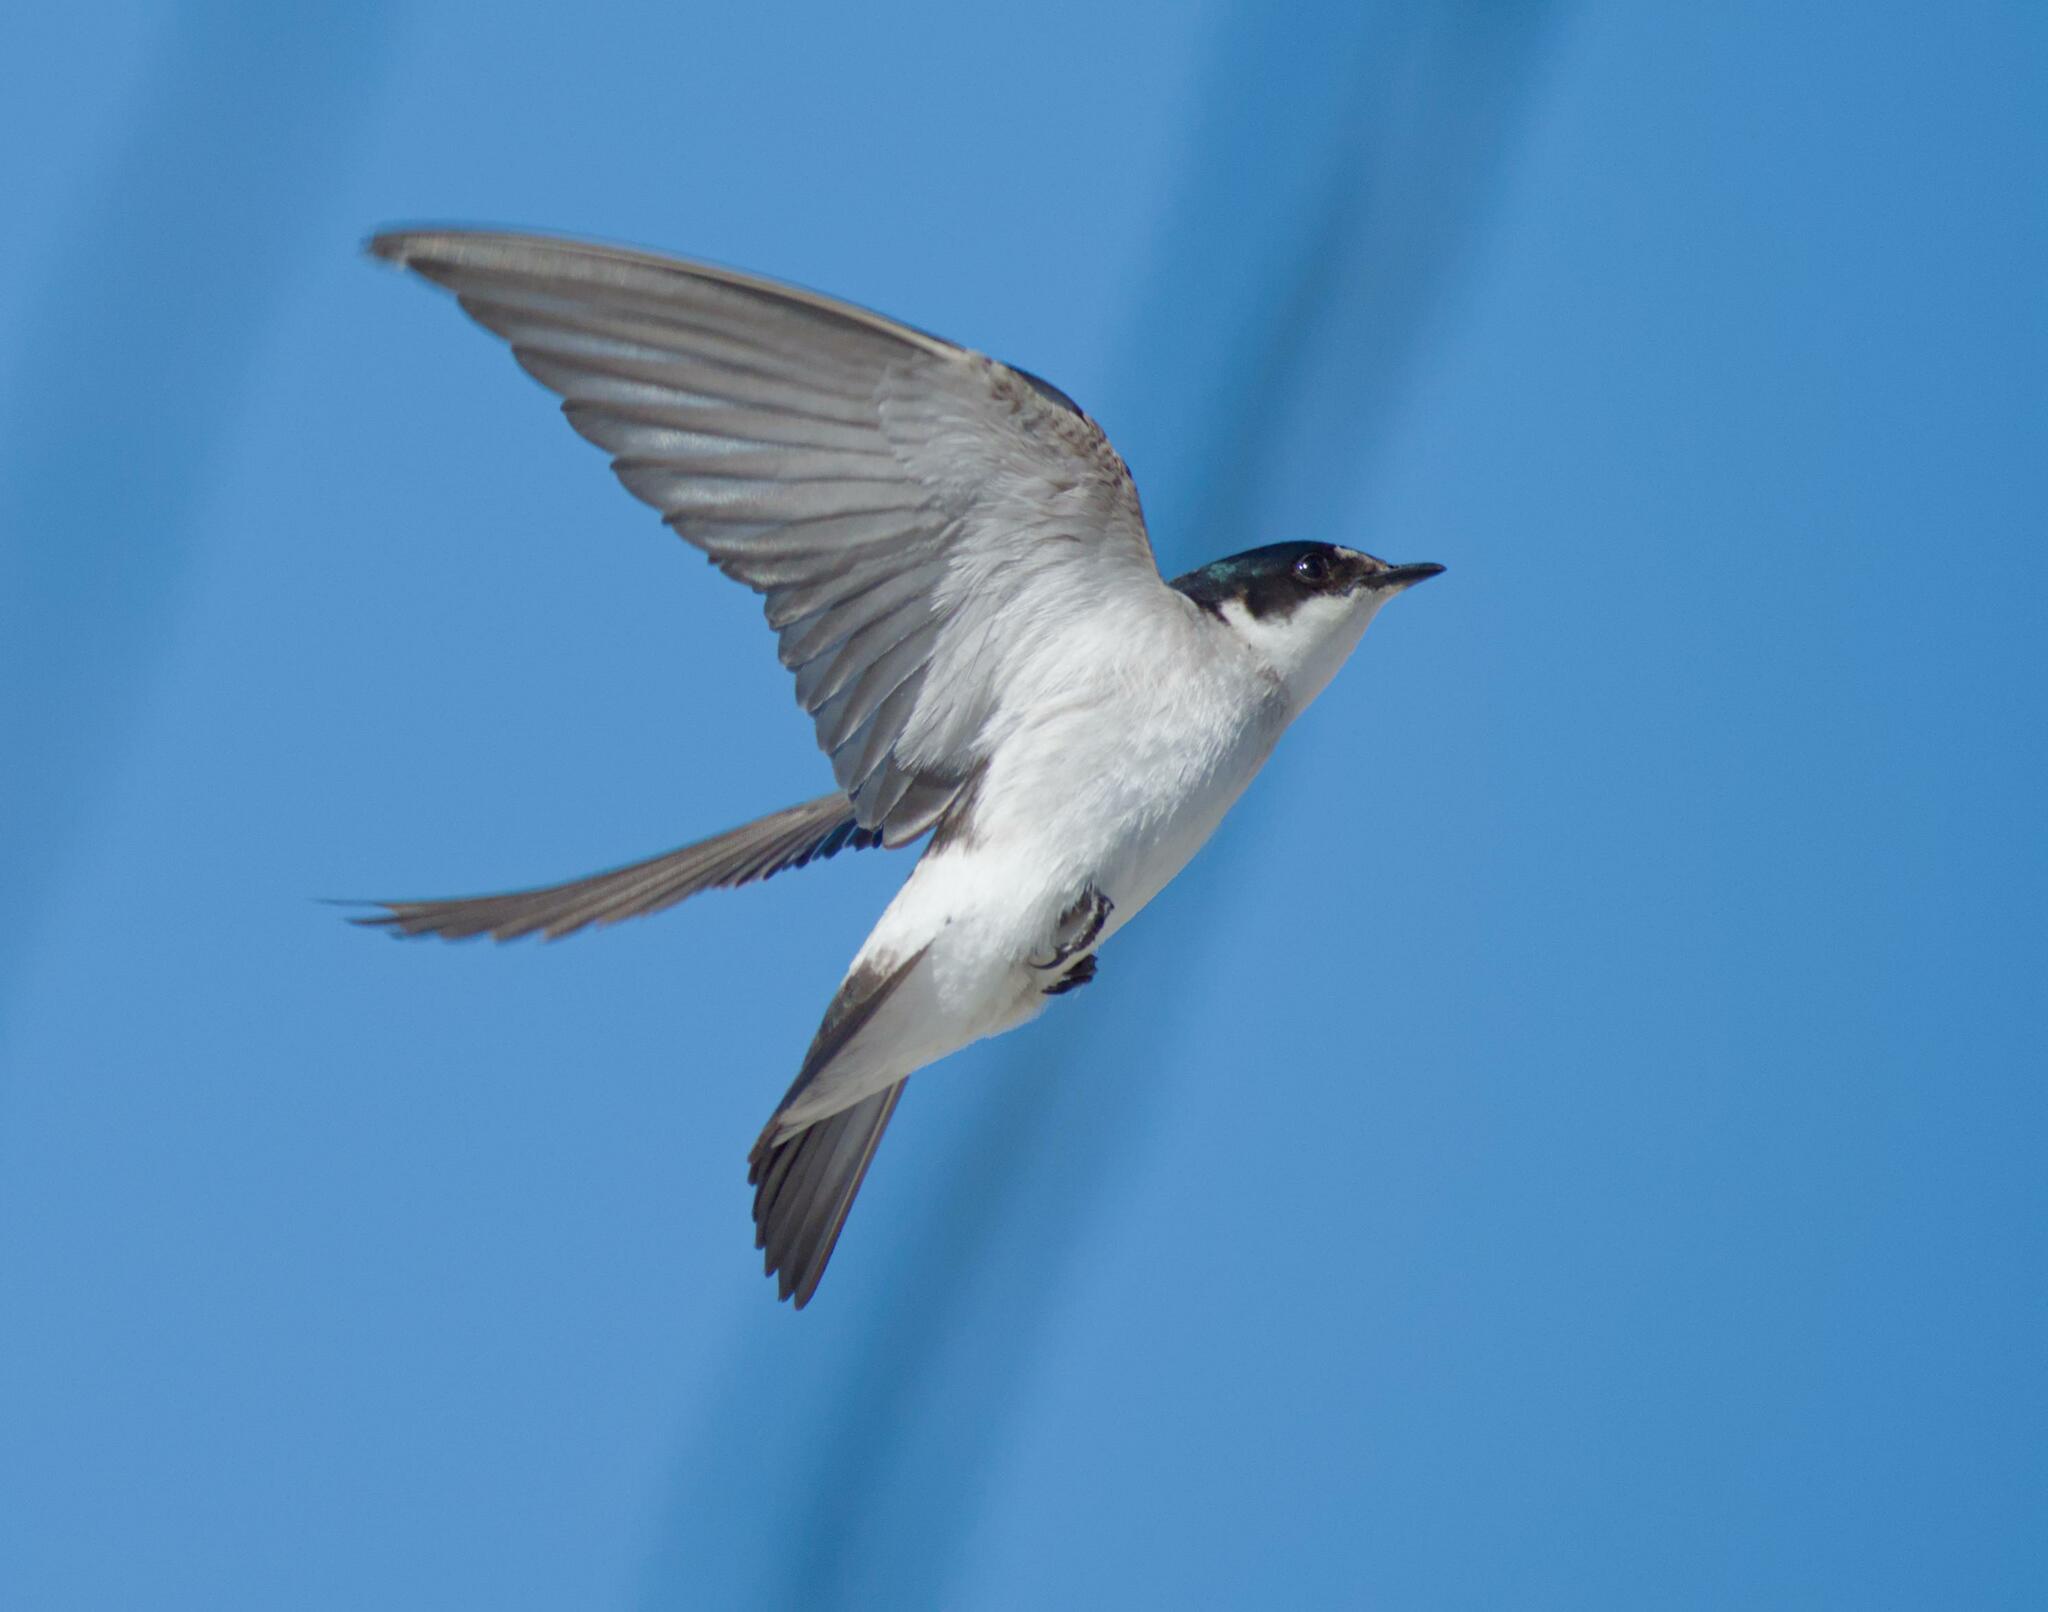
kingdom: Animalia
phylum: Chordata
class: Aves
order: Passeriformes
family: Hirundinidae
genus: Tachycineta
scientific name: Tachycineta albilinea
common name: Mangrove swallow
